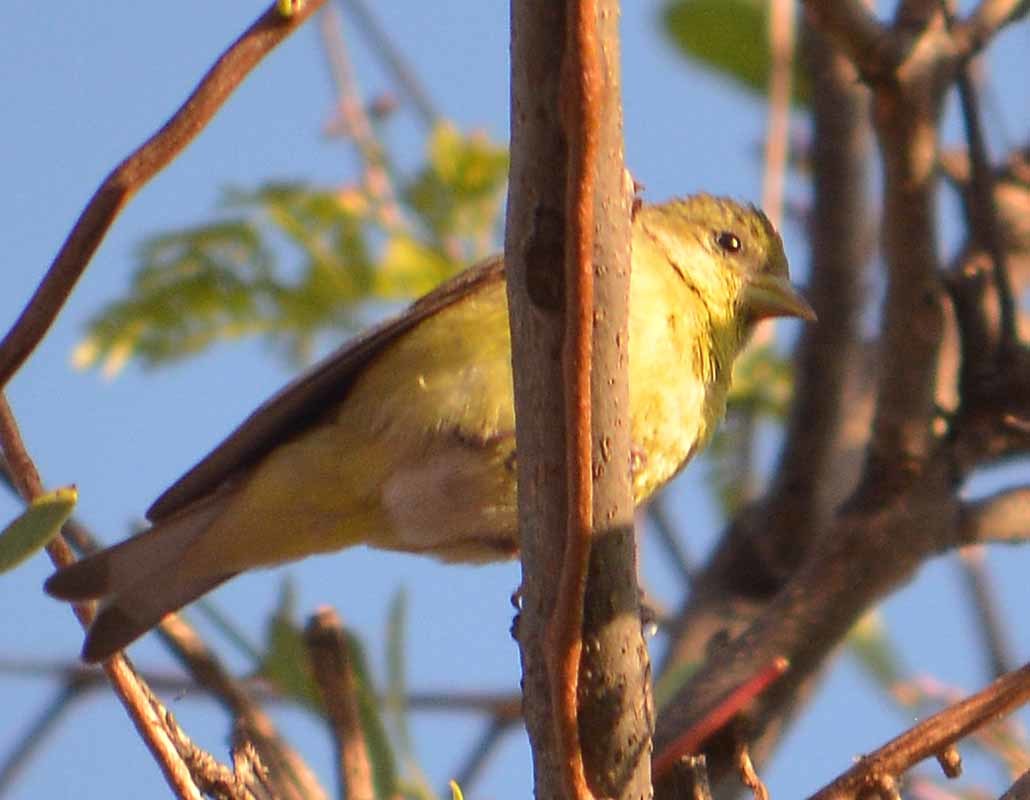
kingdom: Animalia
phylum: Chordata
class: Aves
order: Passeriformes
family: Fringillidae
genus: Spinus
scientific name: Spinus psaltria
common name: Lesser goldfinch
